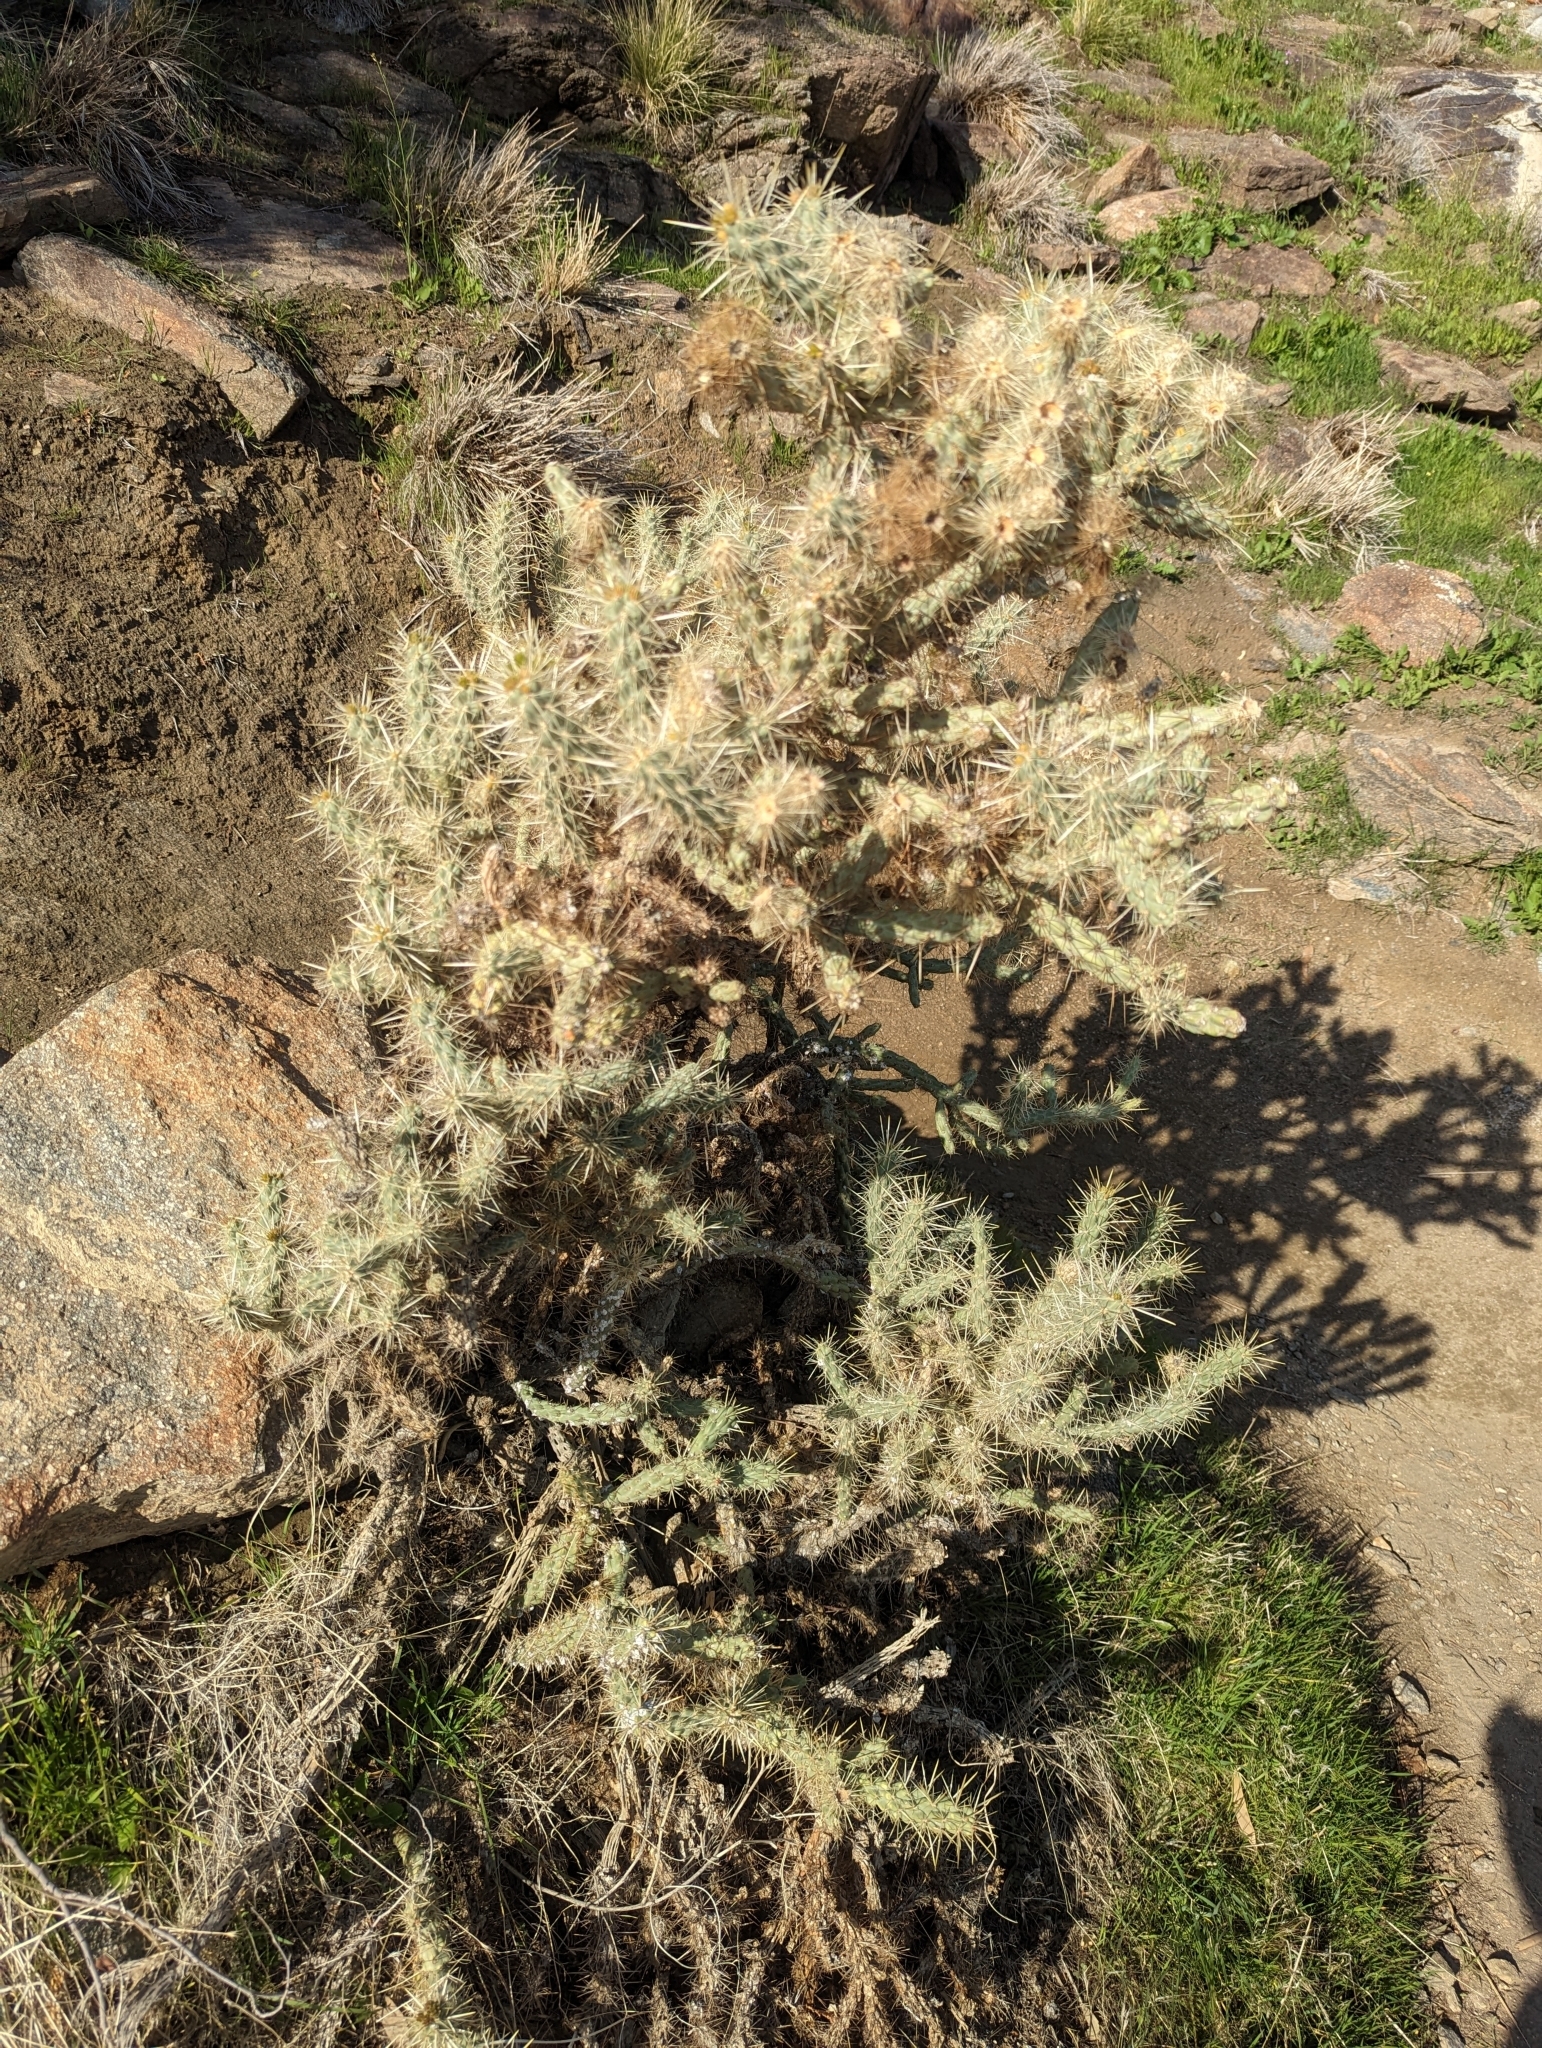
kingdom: Plantae
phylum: Tracheophyta
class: Magnoliopsida
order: Caryophyllales
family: Cactaceae
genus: Cylindropuntia
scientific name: Cylindropuntia echinocarpa
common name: Ground cholla
